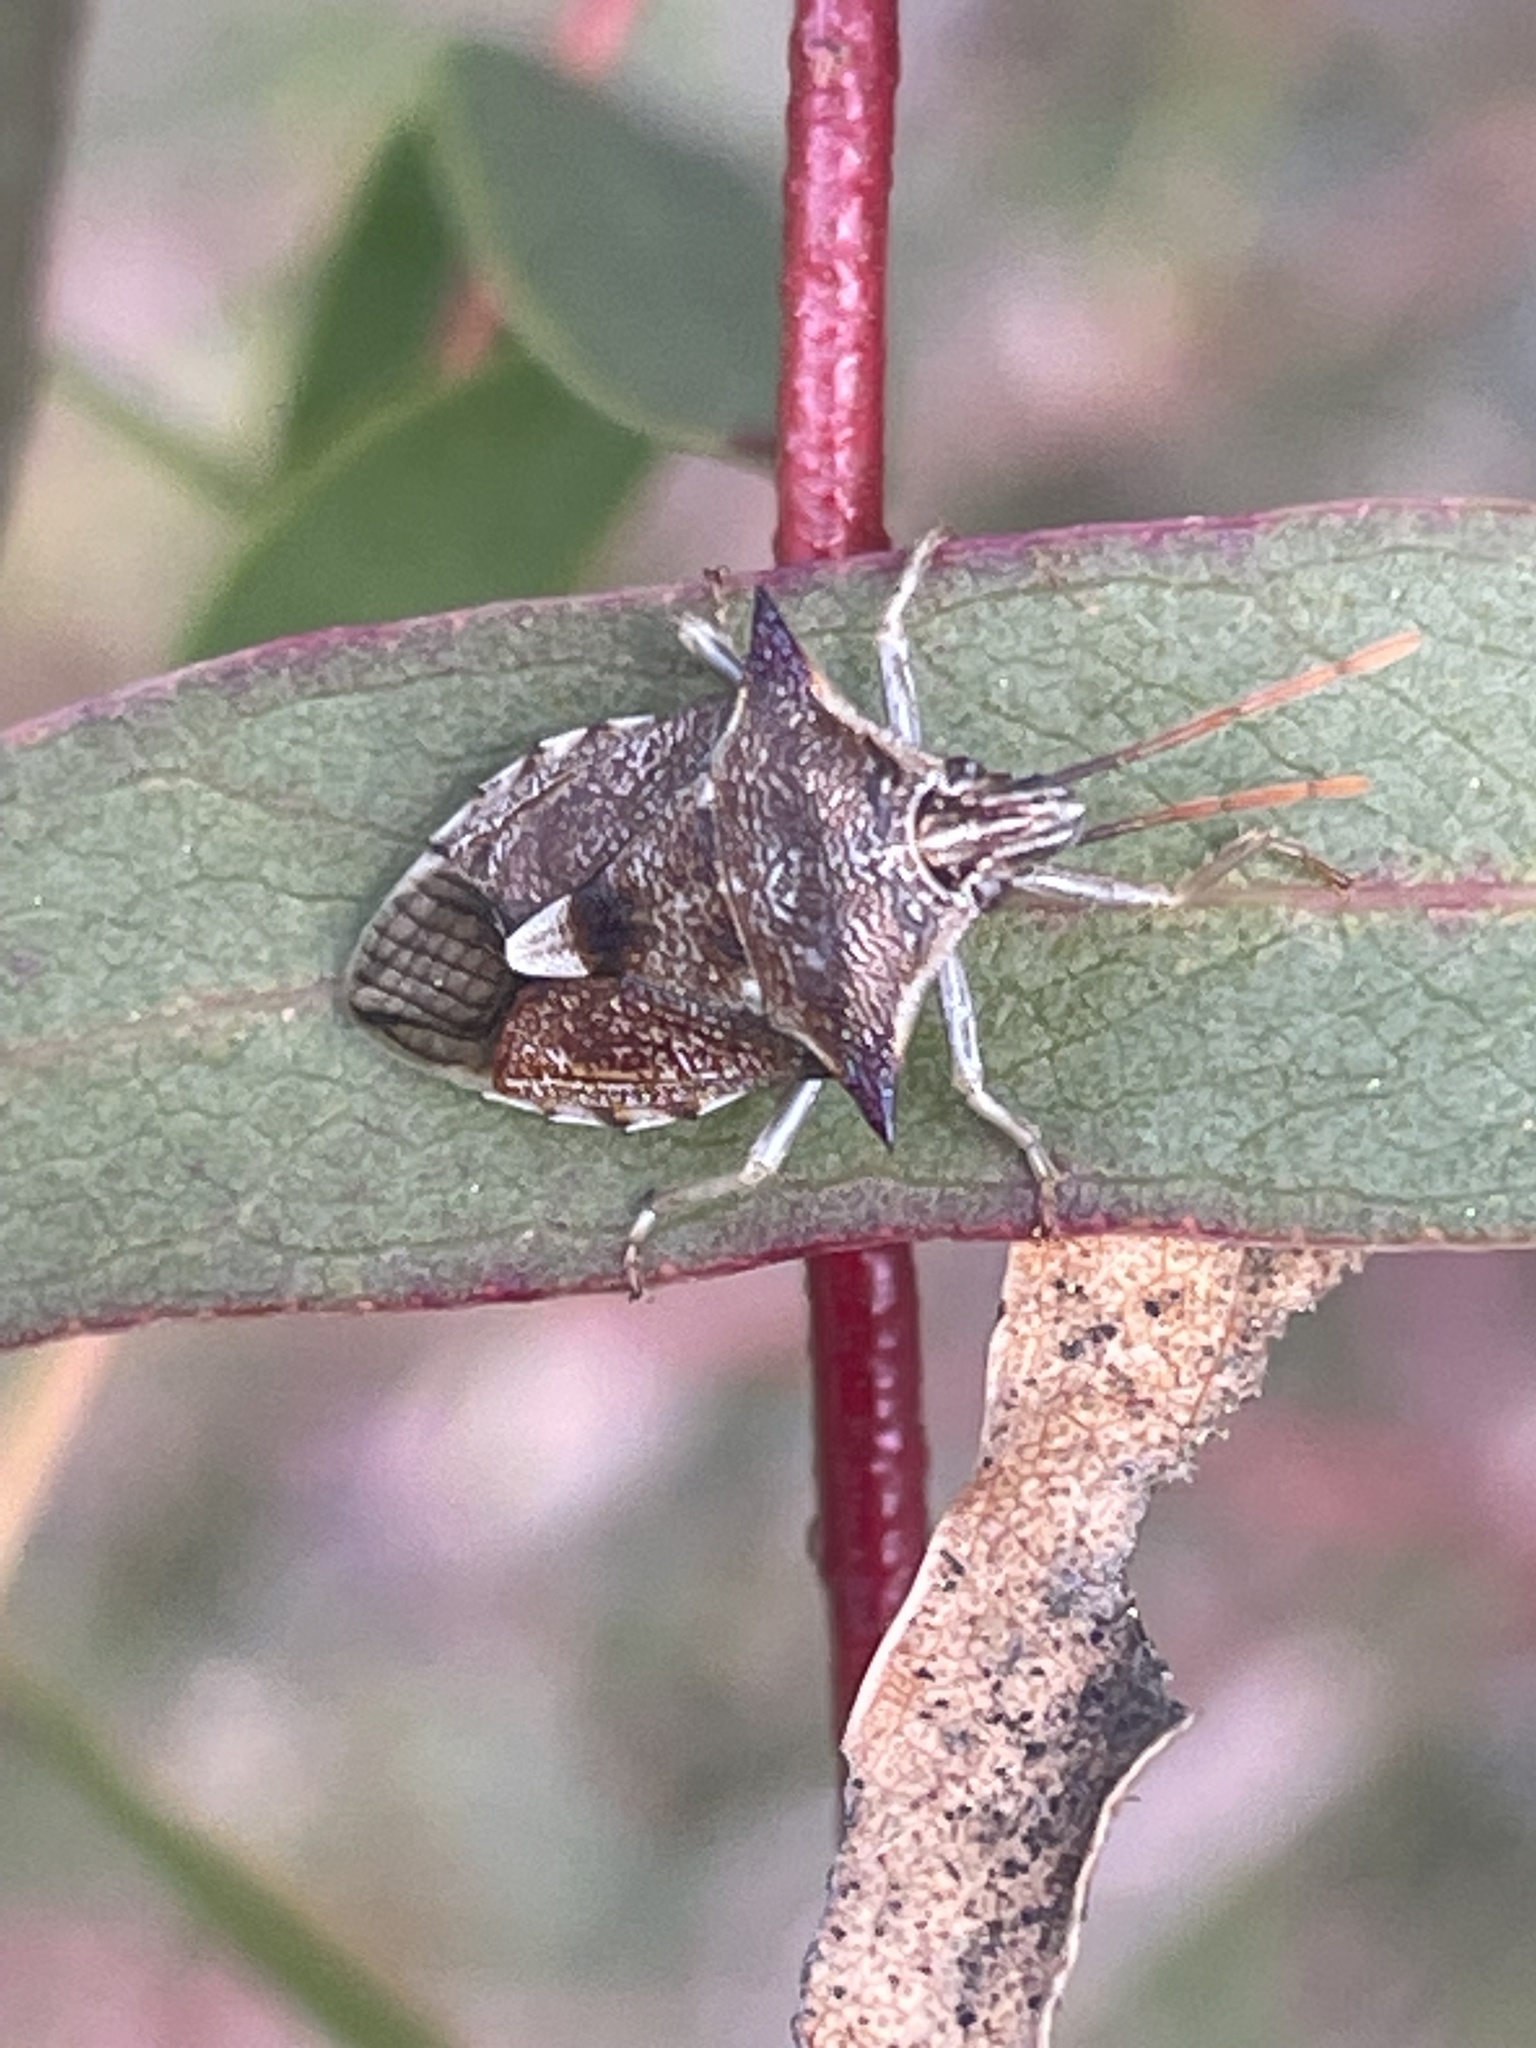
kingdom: Animalia
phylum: Arthropoda
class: Insecta
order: Hemiptera
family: Pentatomidae
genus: Oechalia
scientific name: Oechalia schellenbergii
